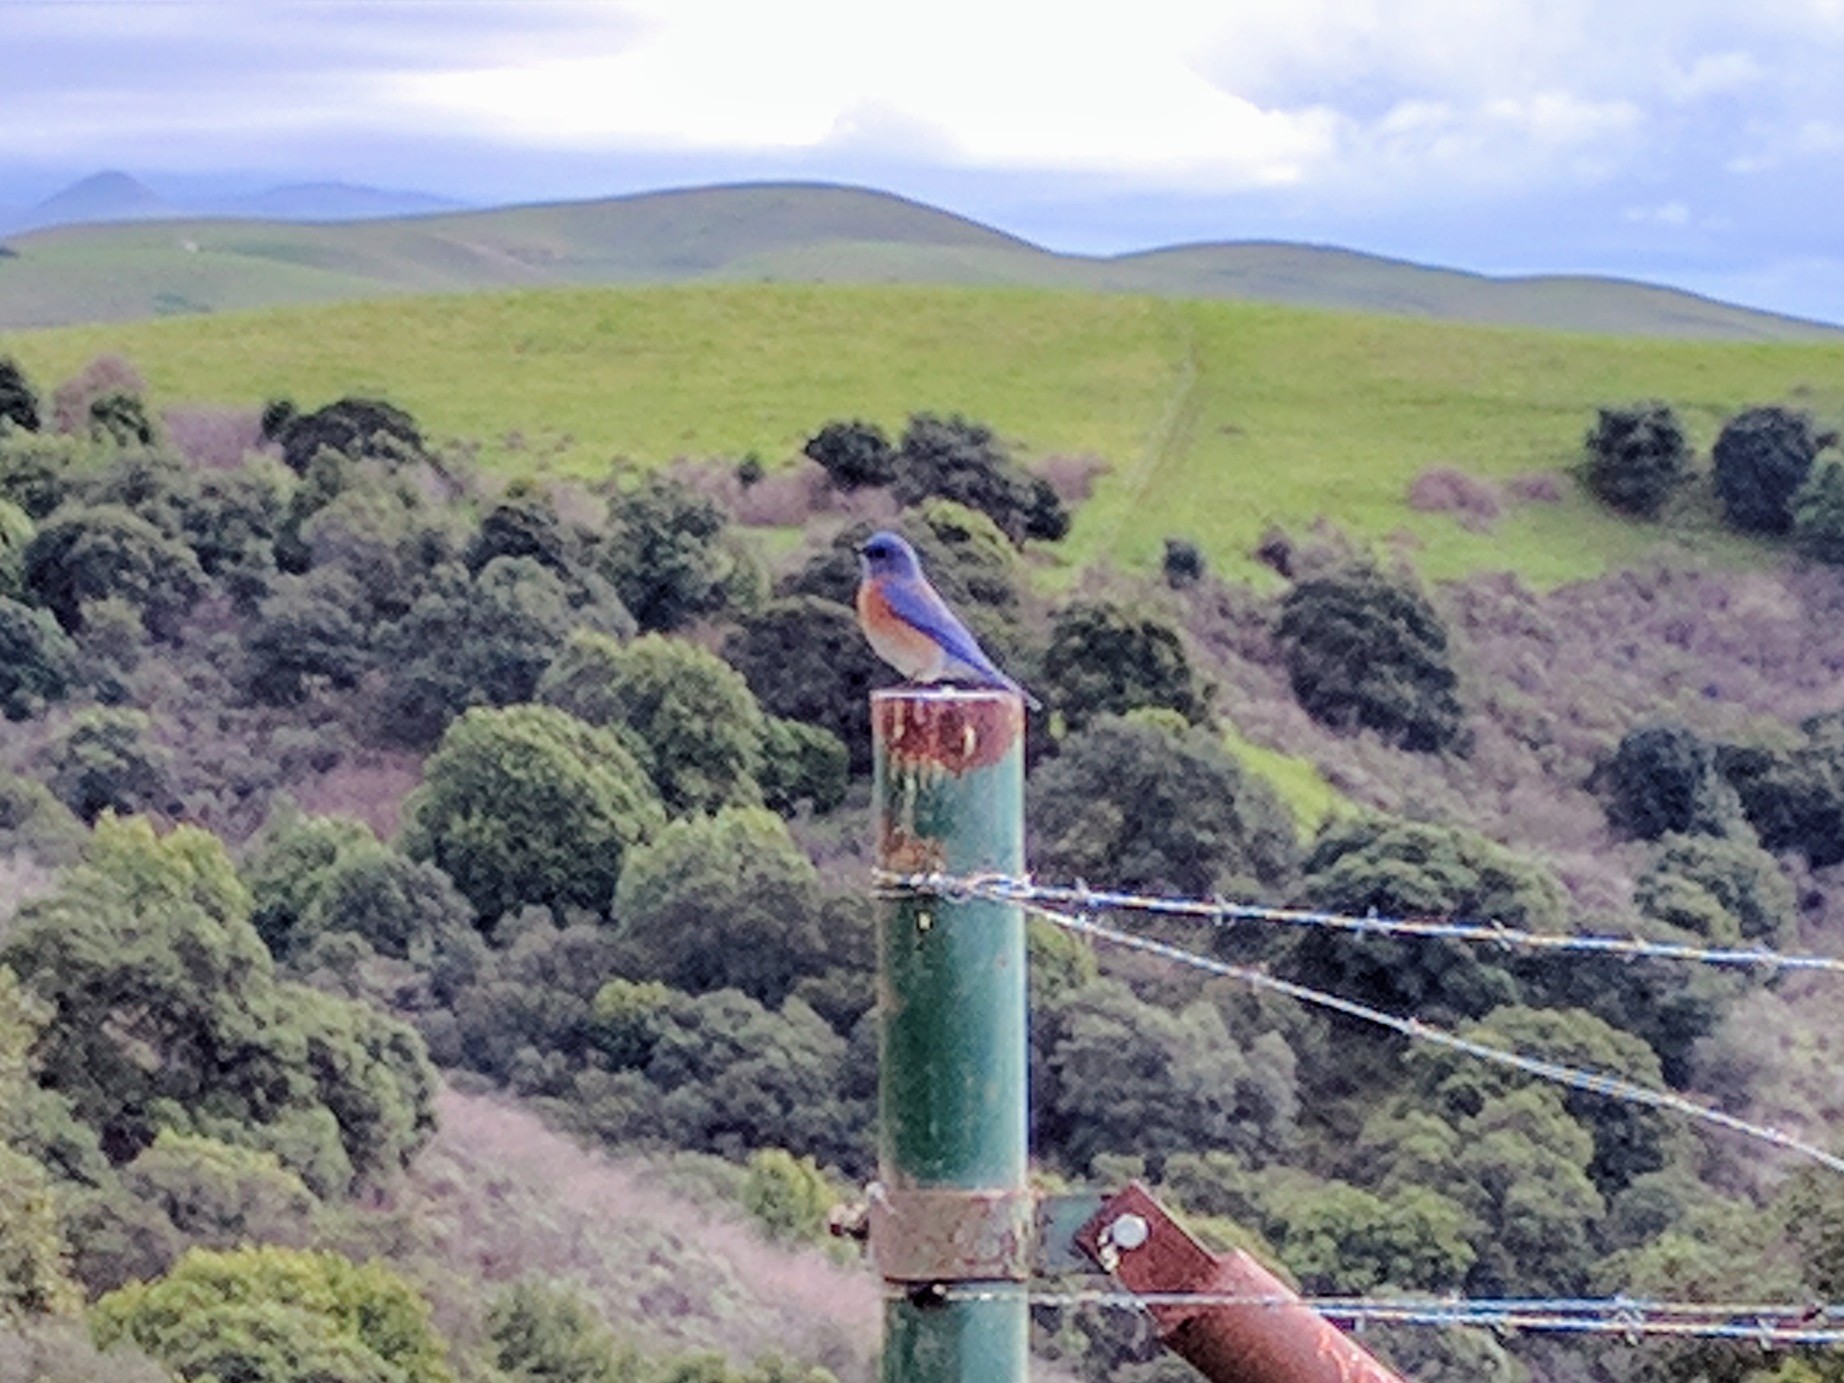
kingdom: Animalia
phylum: Chordata
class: Aves
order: Passeriformes
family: Turdidae
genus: Sialia
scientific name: Sialia mexicana
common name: Western bluebird
